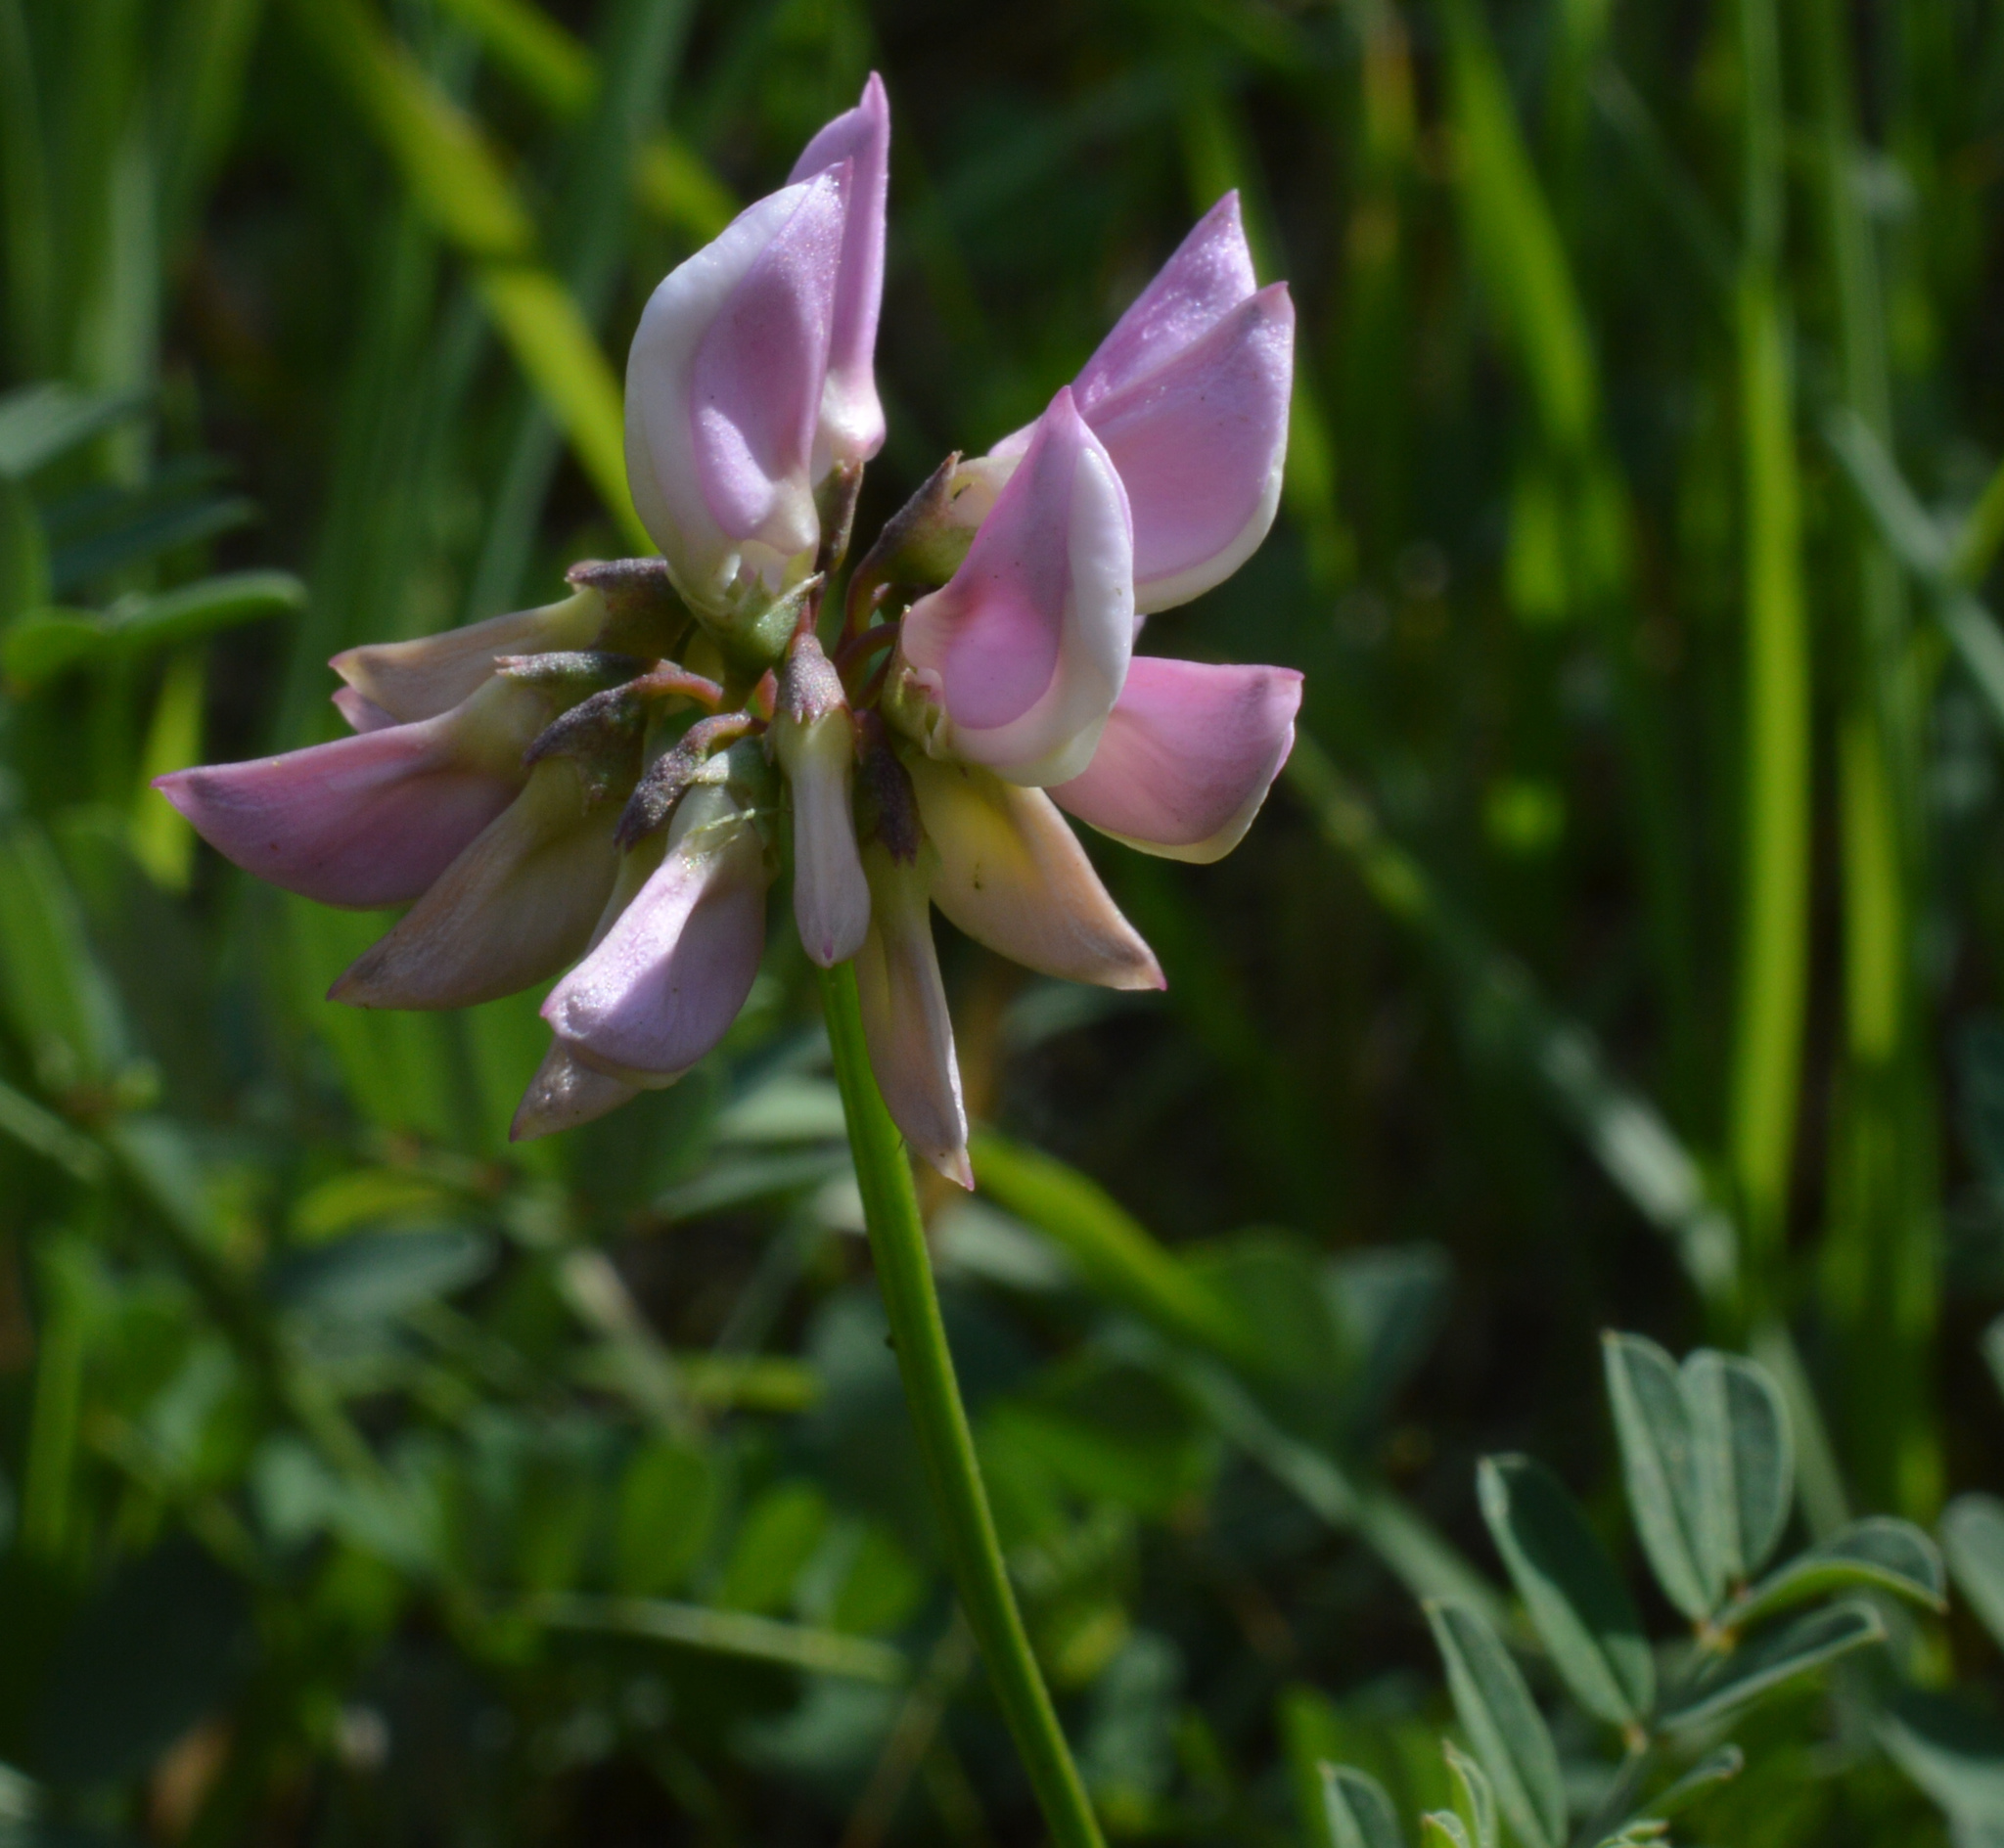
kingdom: Plantae
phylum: Tracheophyta
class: Magnoliopsida
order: Fabales
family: Fabaceae
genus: Coronilla
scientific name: Coronilla varia
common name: Crownvetch
